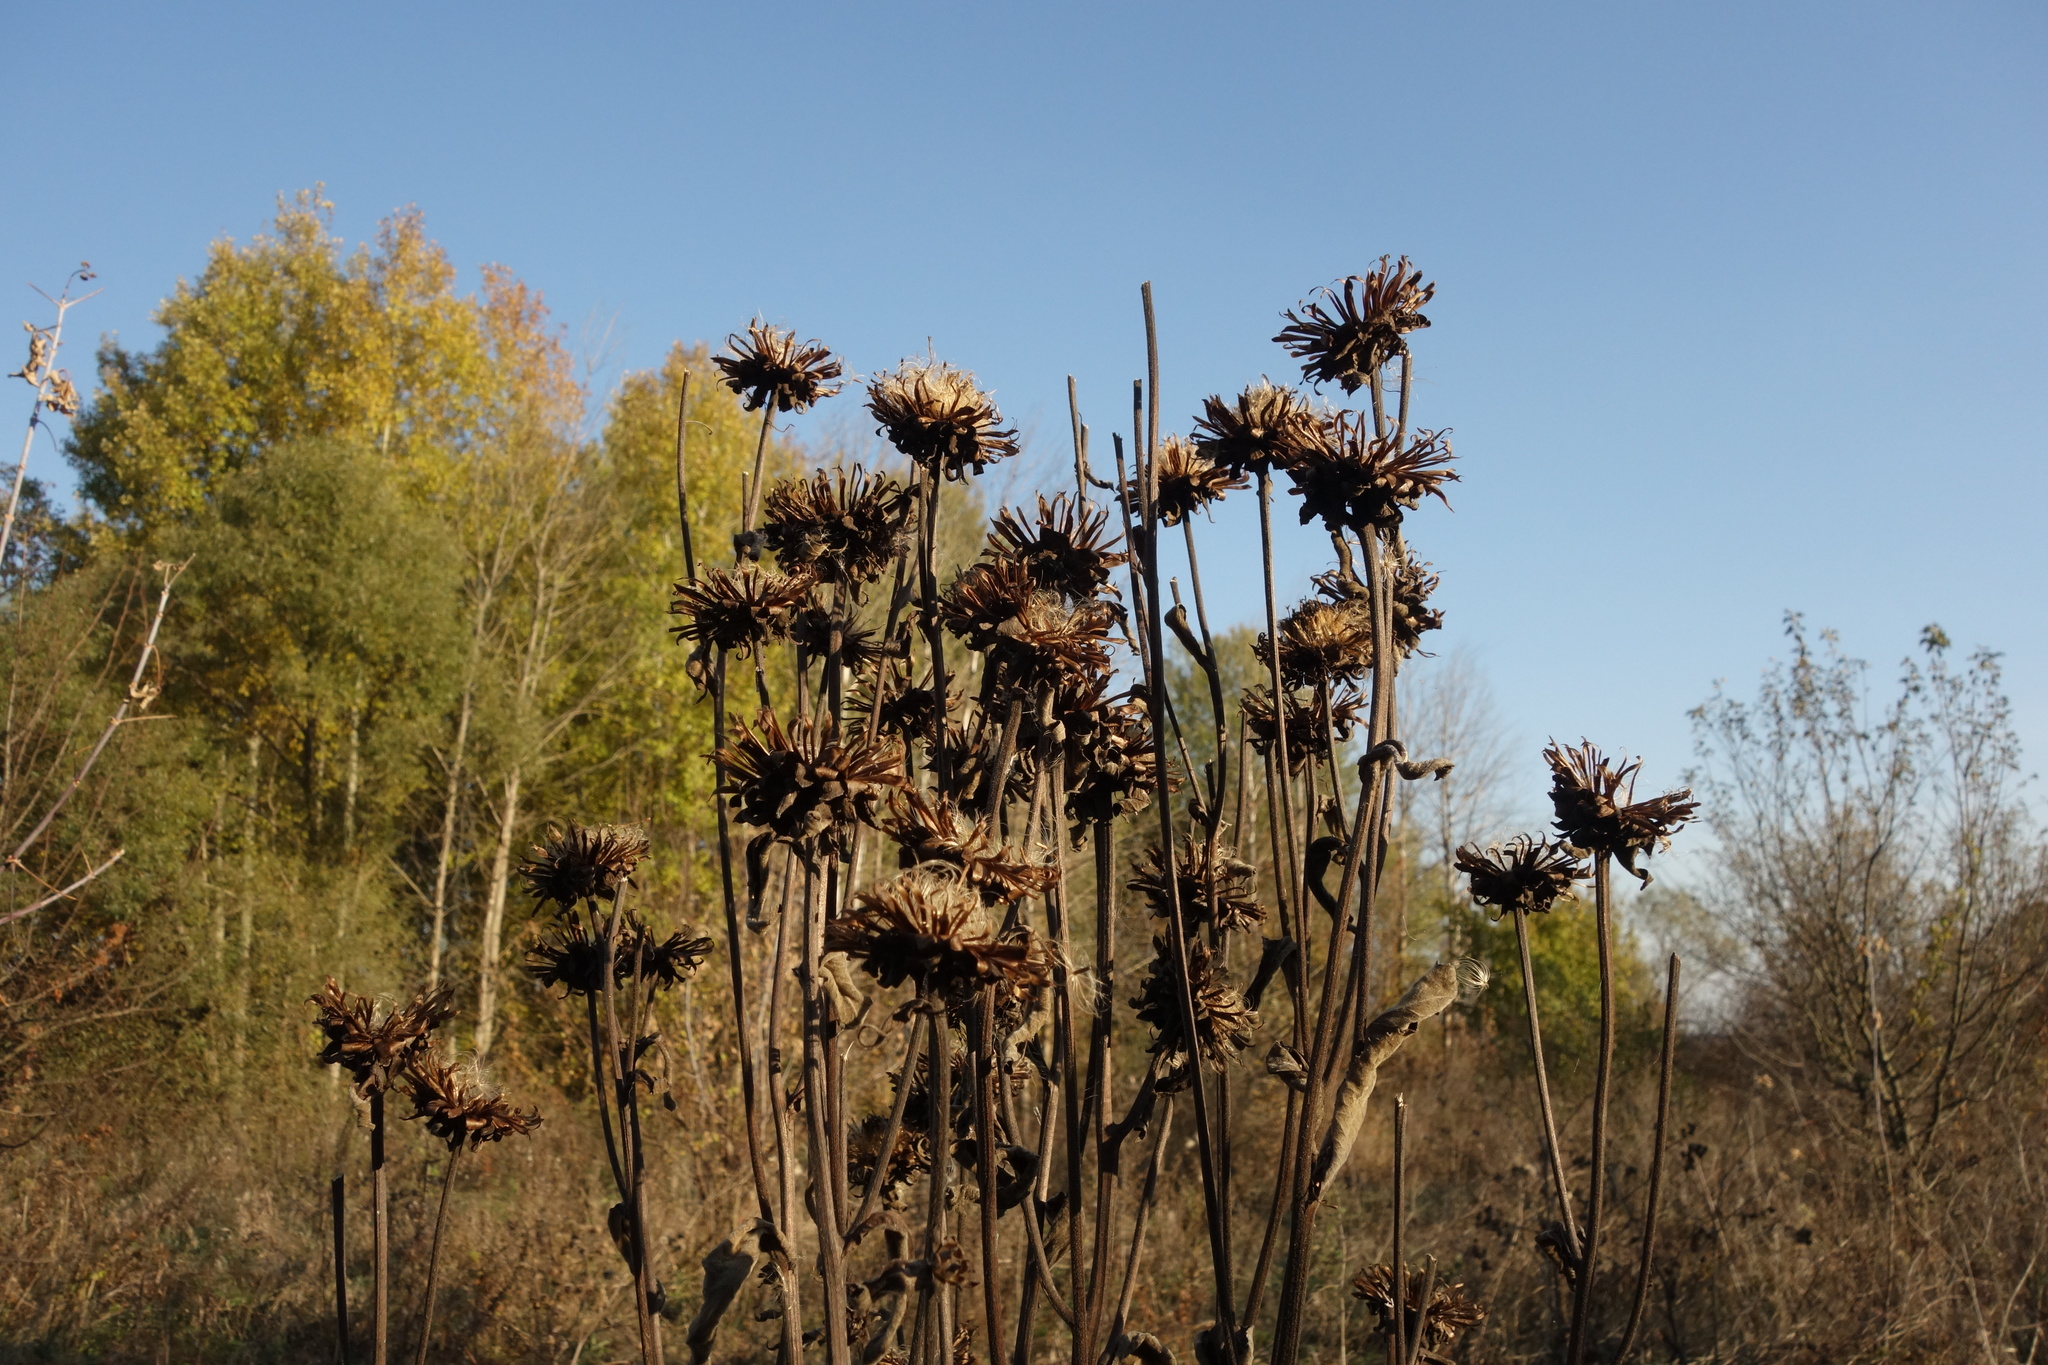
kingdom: Plantae
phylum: Tracheophyta
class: Magnoliopsida
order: Asterales
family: Asteraceae
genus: Inula
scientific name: Inula helenium
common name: Elecampane
